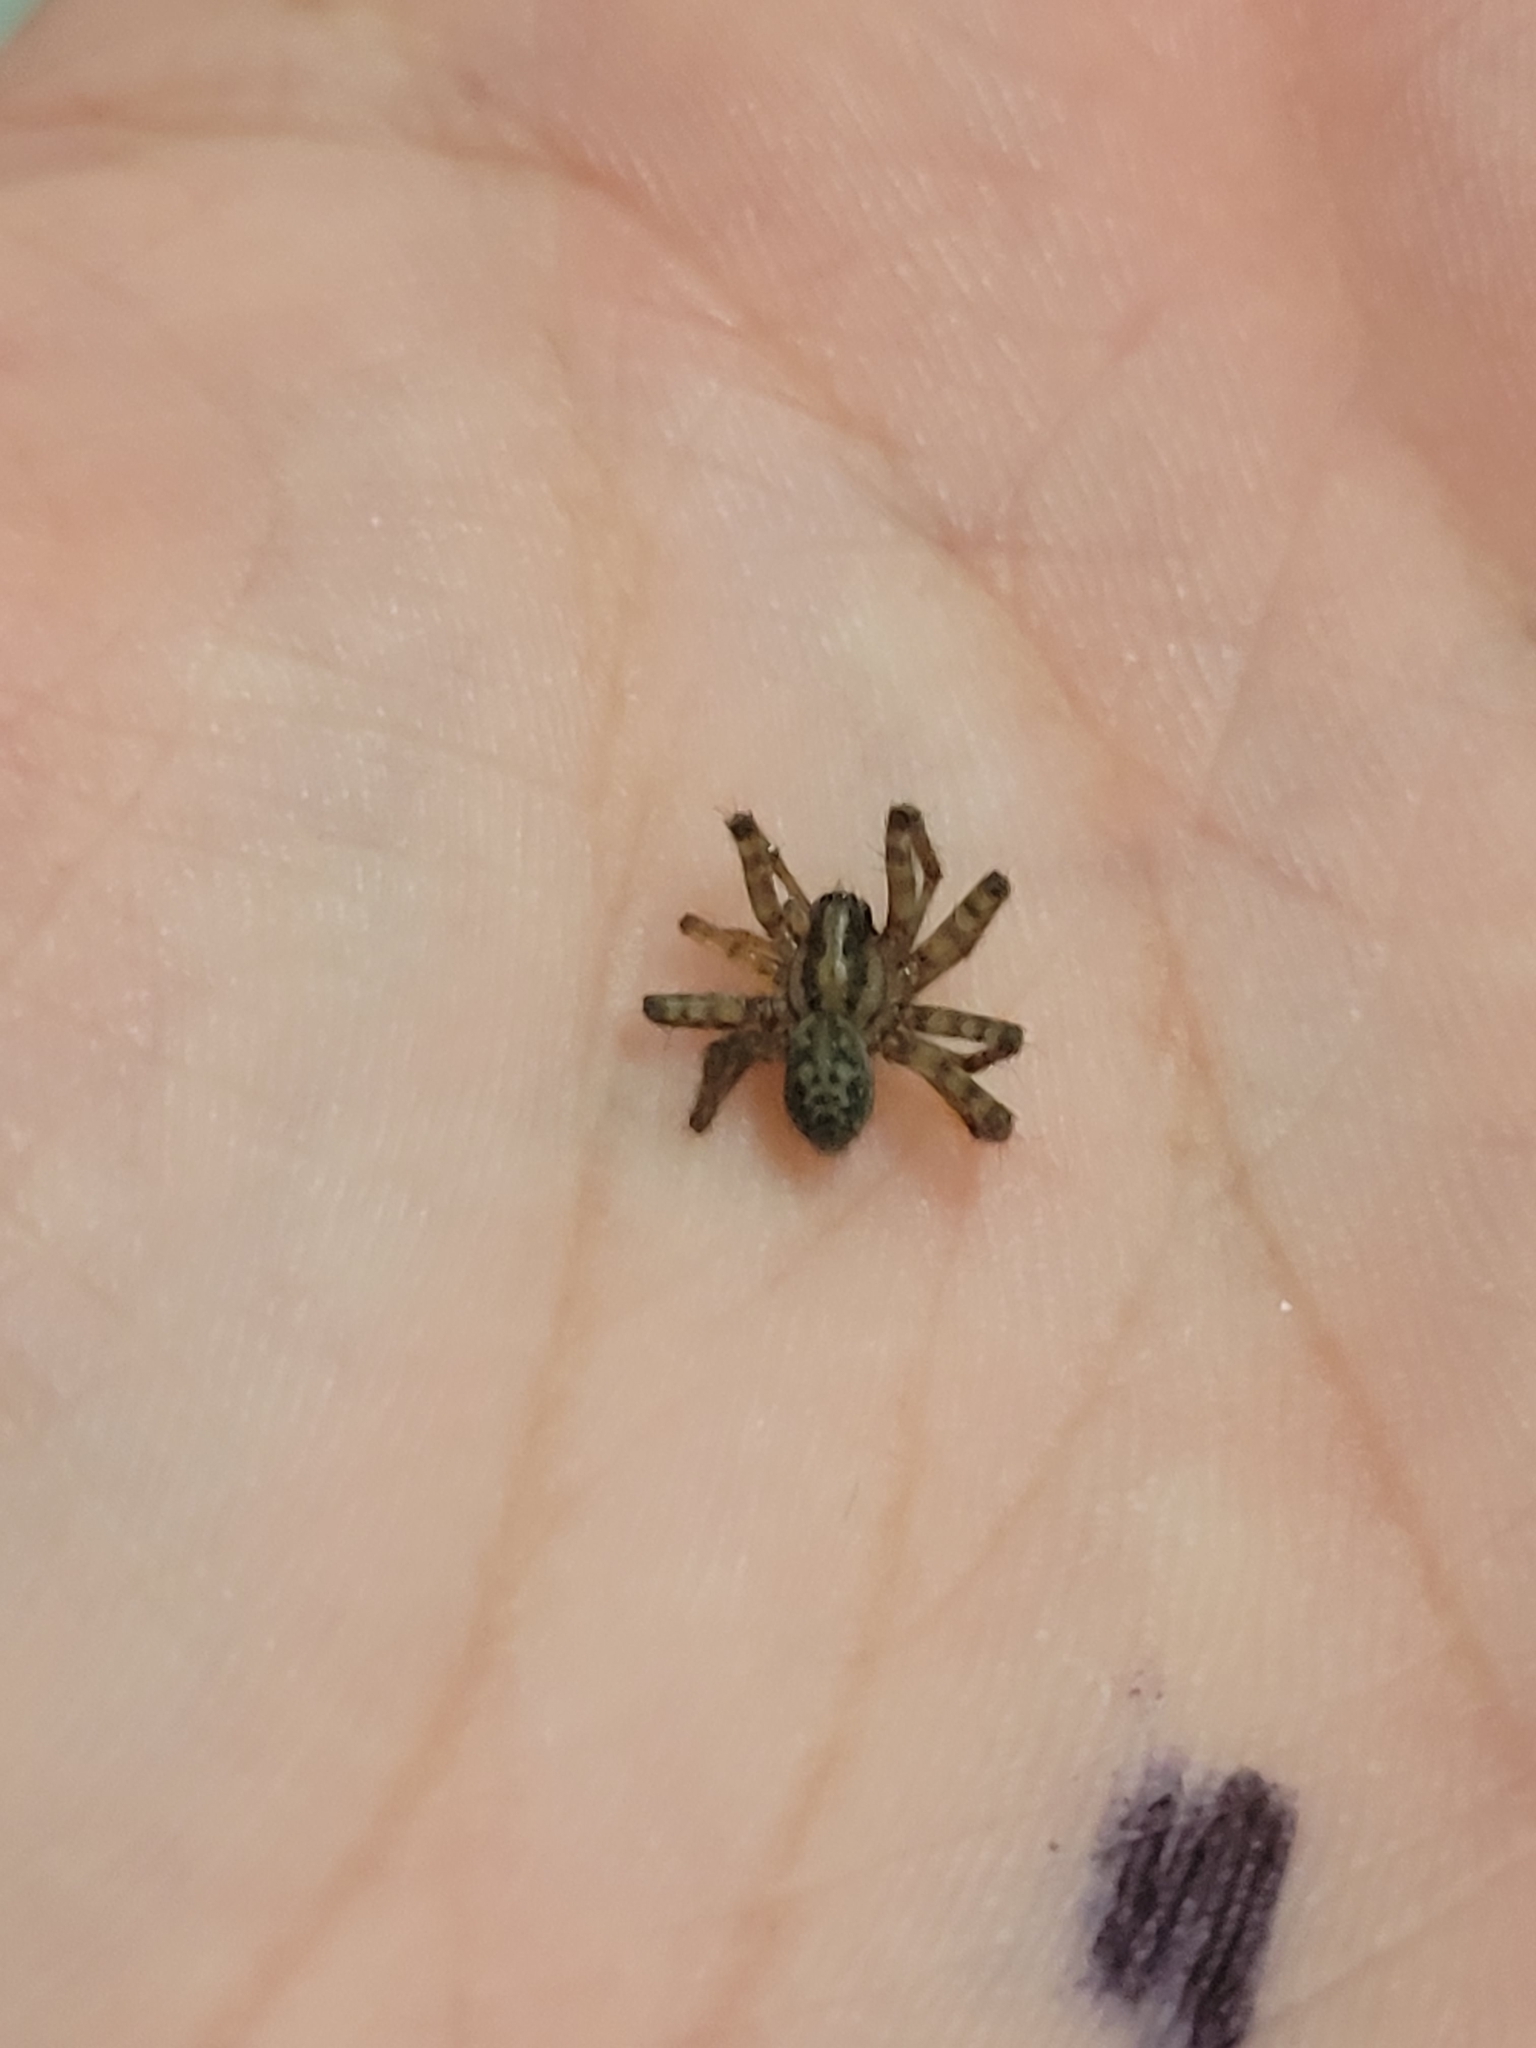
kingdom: Animalia
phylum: Arthropoda
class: Arachnida
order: Araneae
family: Agelenidae
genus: Tegenaria
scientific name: Tegenaria domestica
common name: Barn funnel weaver
